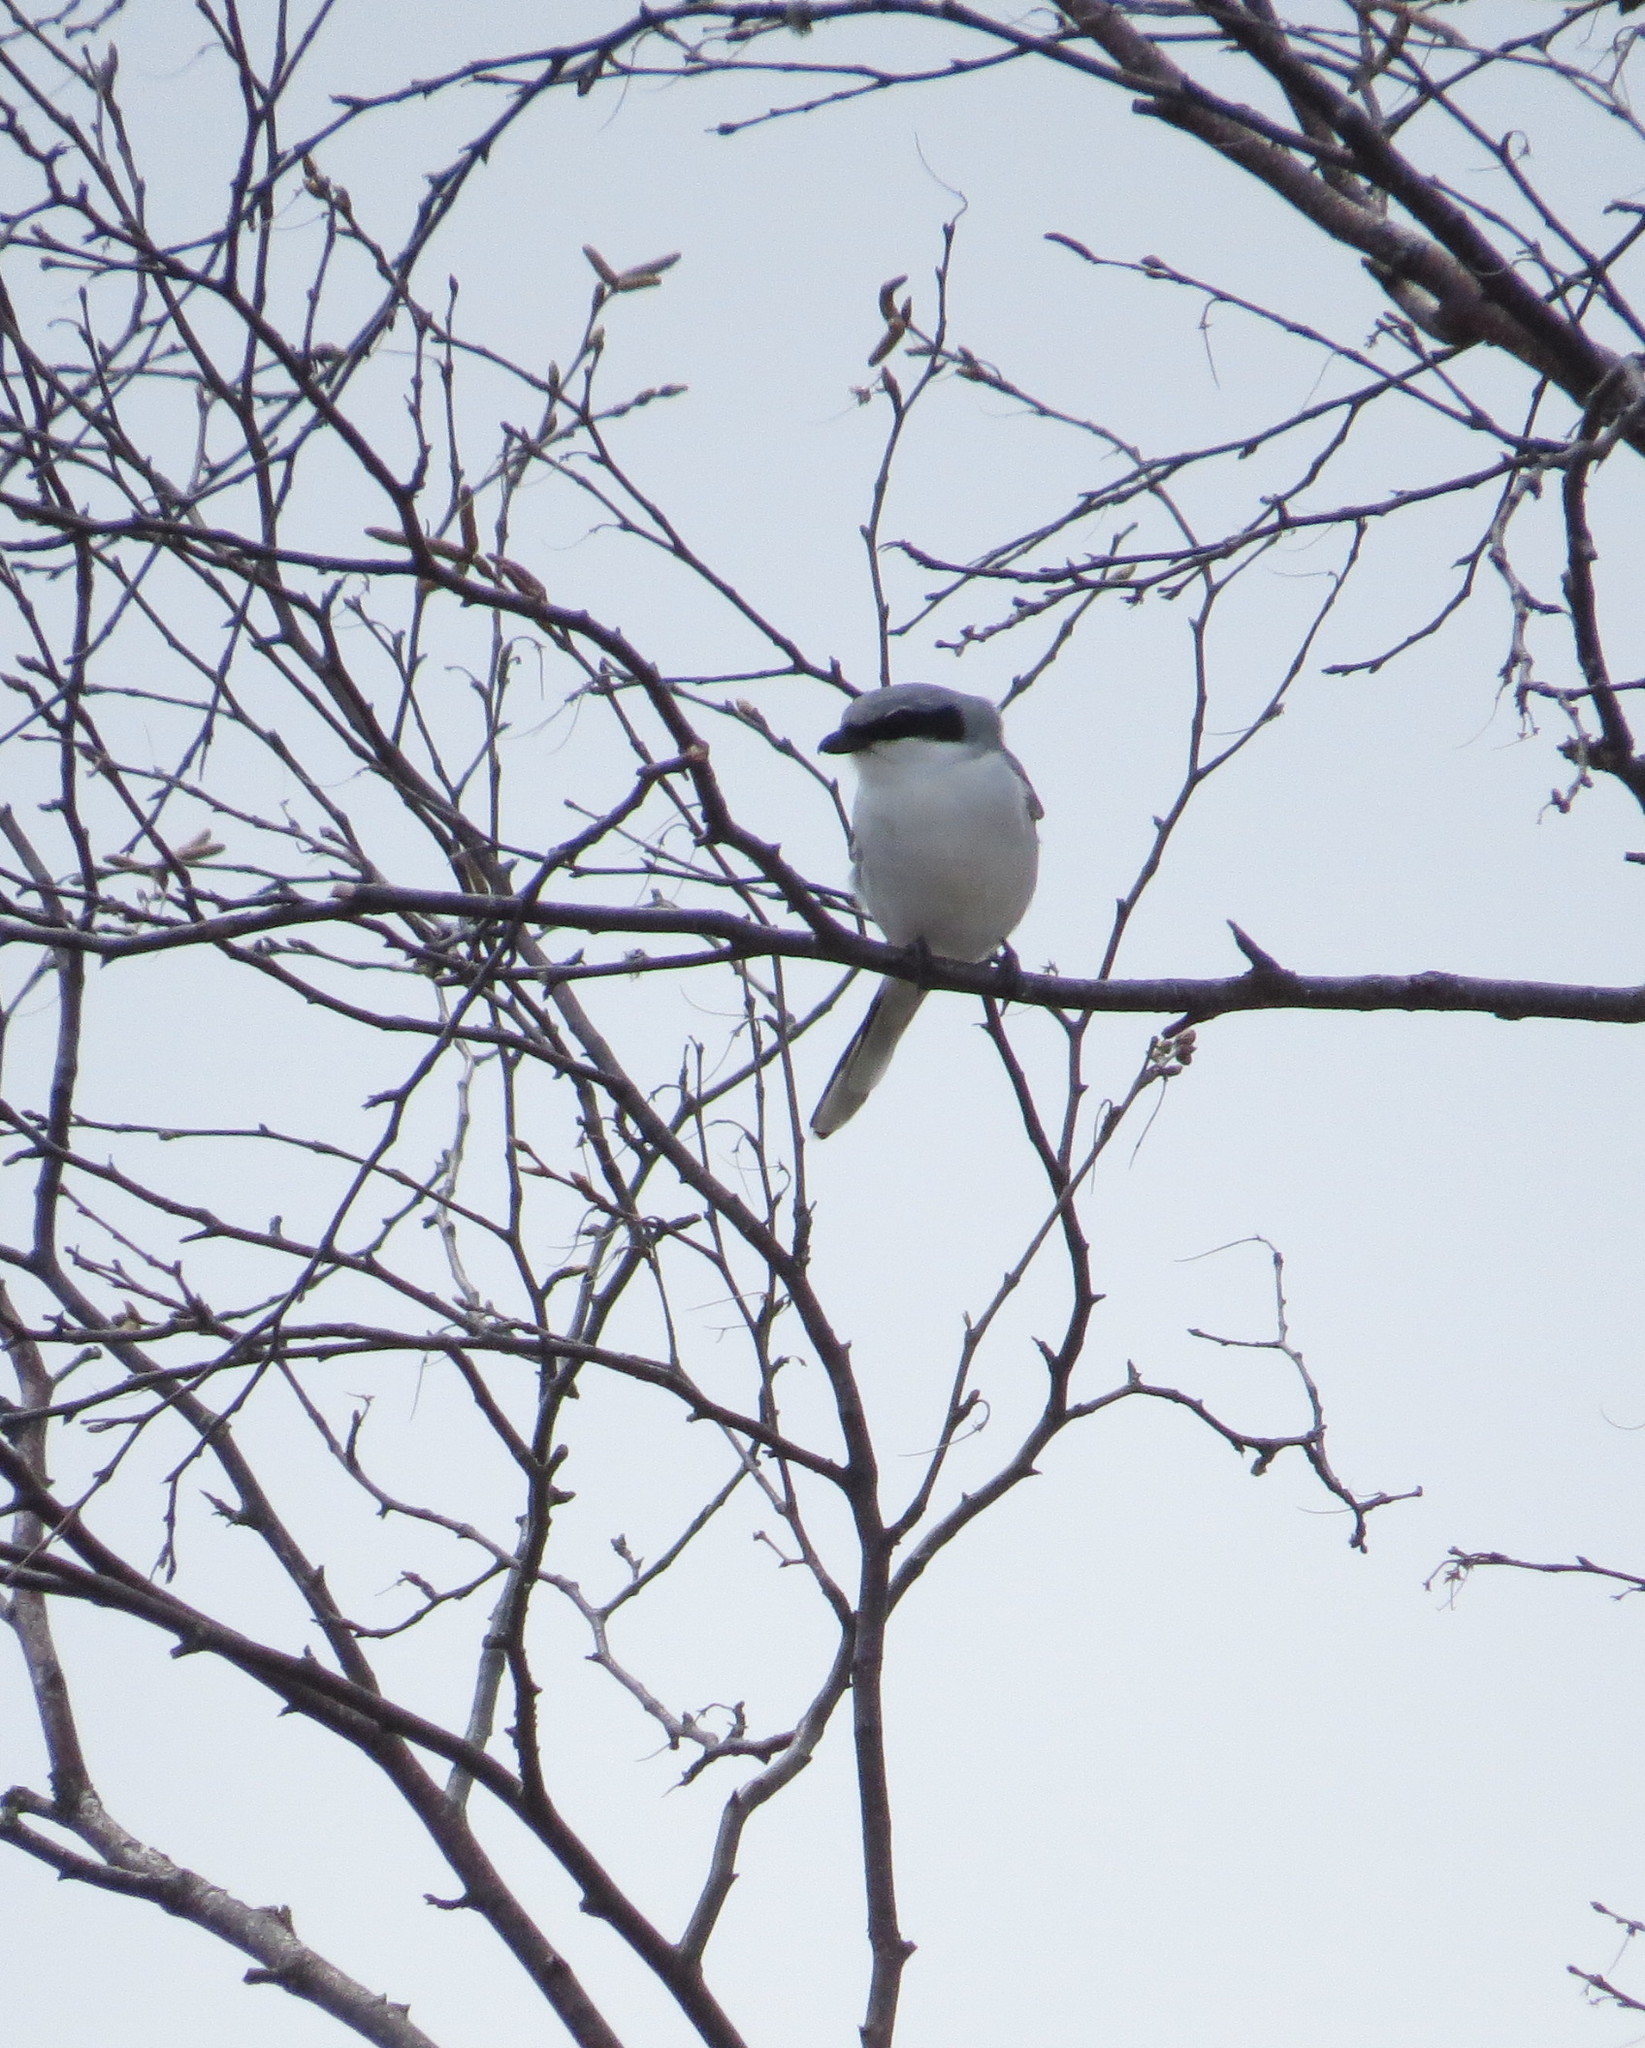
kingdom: Animalia
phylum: Chordata
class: Aves
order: Passeriformes
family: Laniidae
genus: Lanius
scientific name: Lanius ludovicianus
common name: Loggerhead shrike
